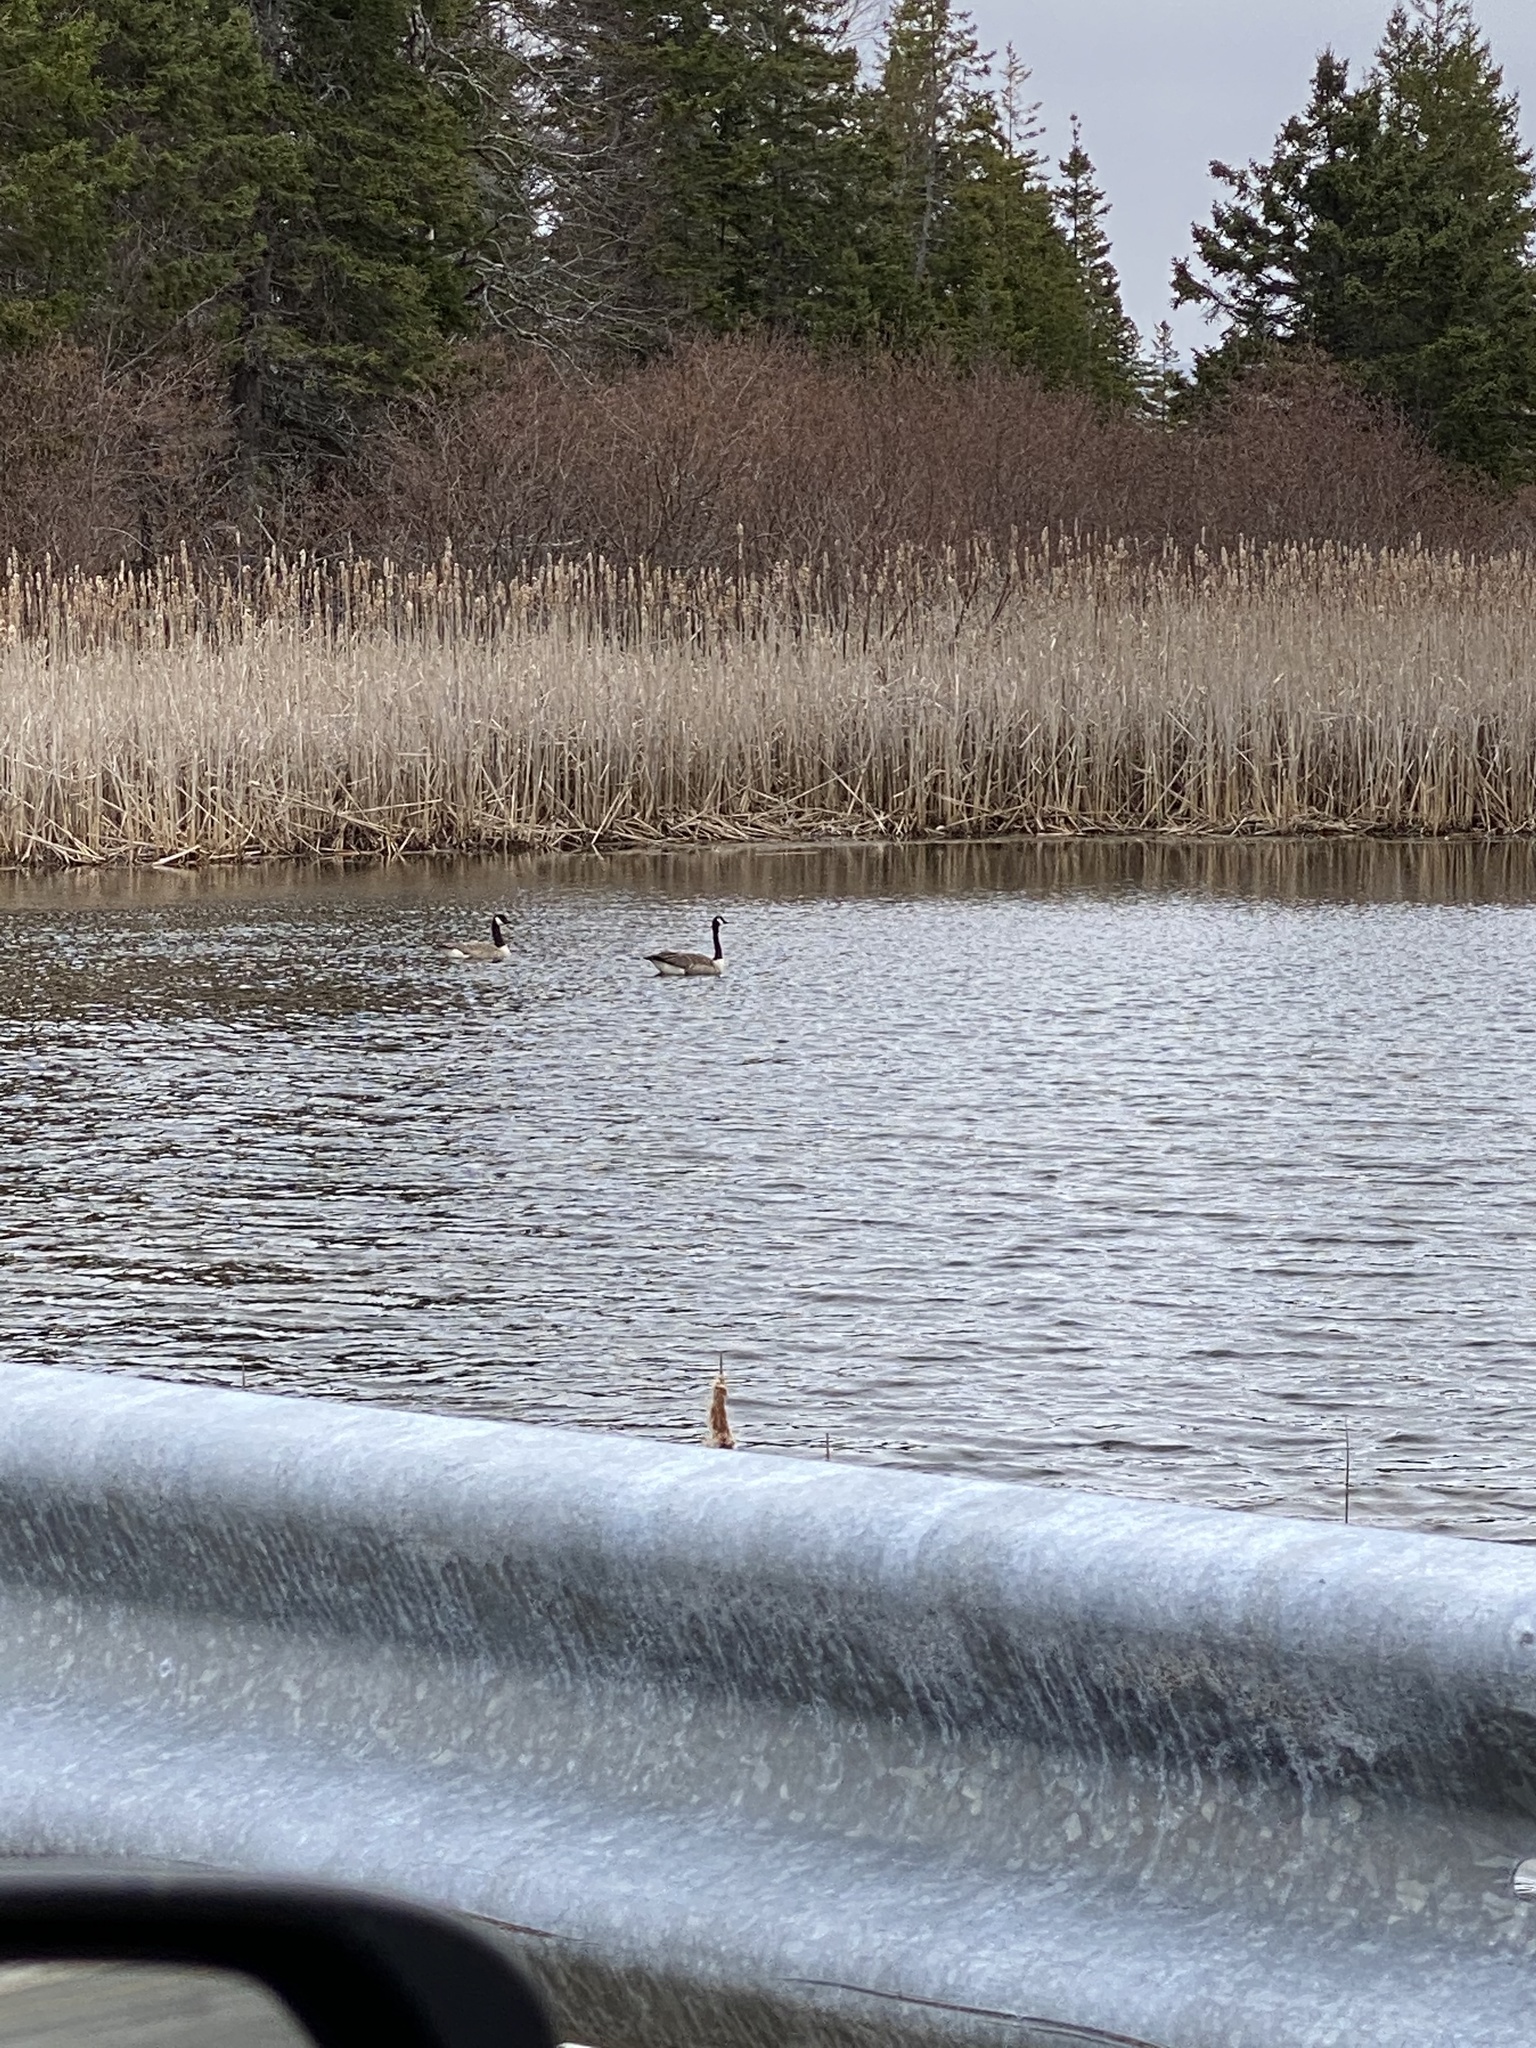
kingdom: Animalia
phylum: Chordata
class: Aves
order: Anseriformes
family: Anatidae
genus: Branta
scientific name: Branta canadensis
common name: Canada goose
